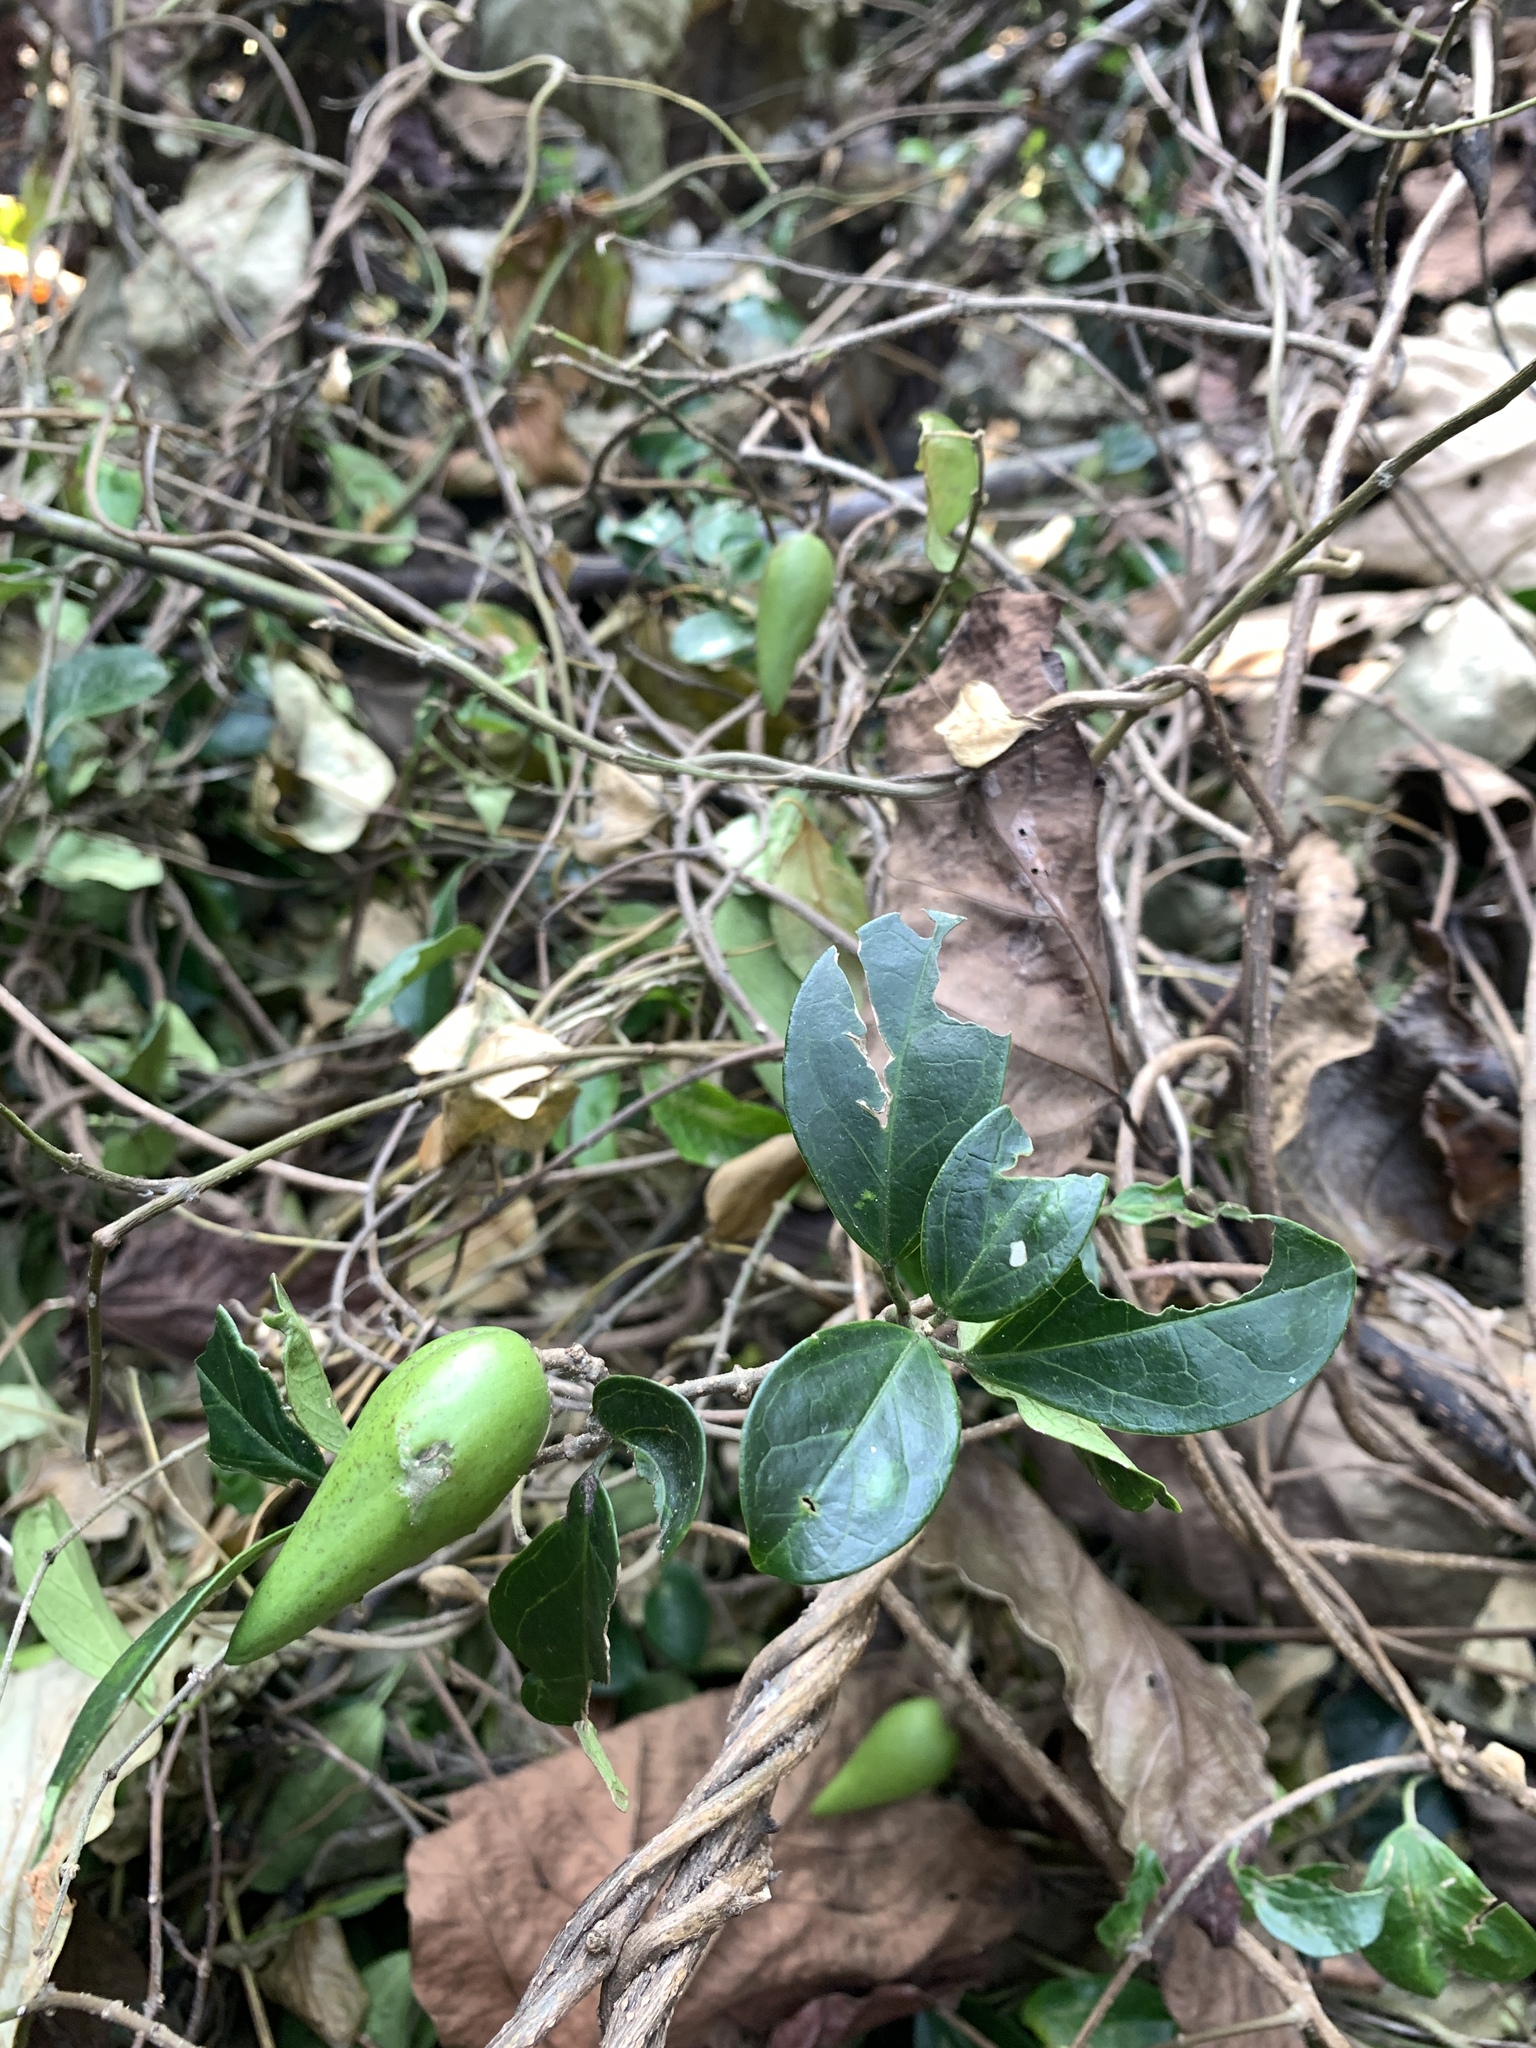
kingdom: Plantae
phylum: Tracheophyta
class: Magnoliopsida
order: Gentianales
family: Apocynaceae
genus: Gymnema
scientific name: Gymnema sylvestre
